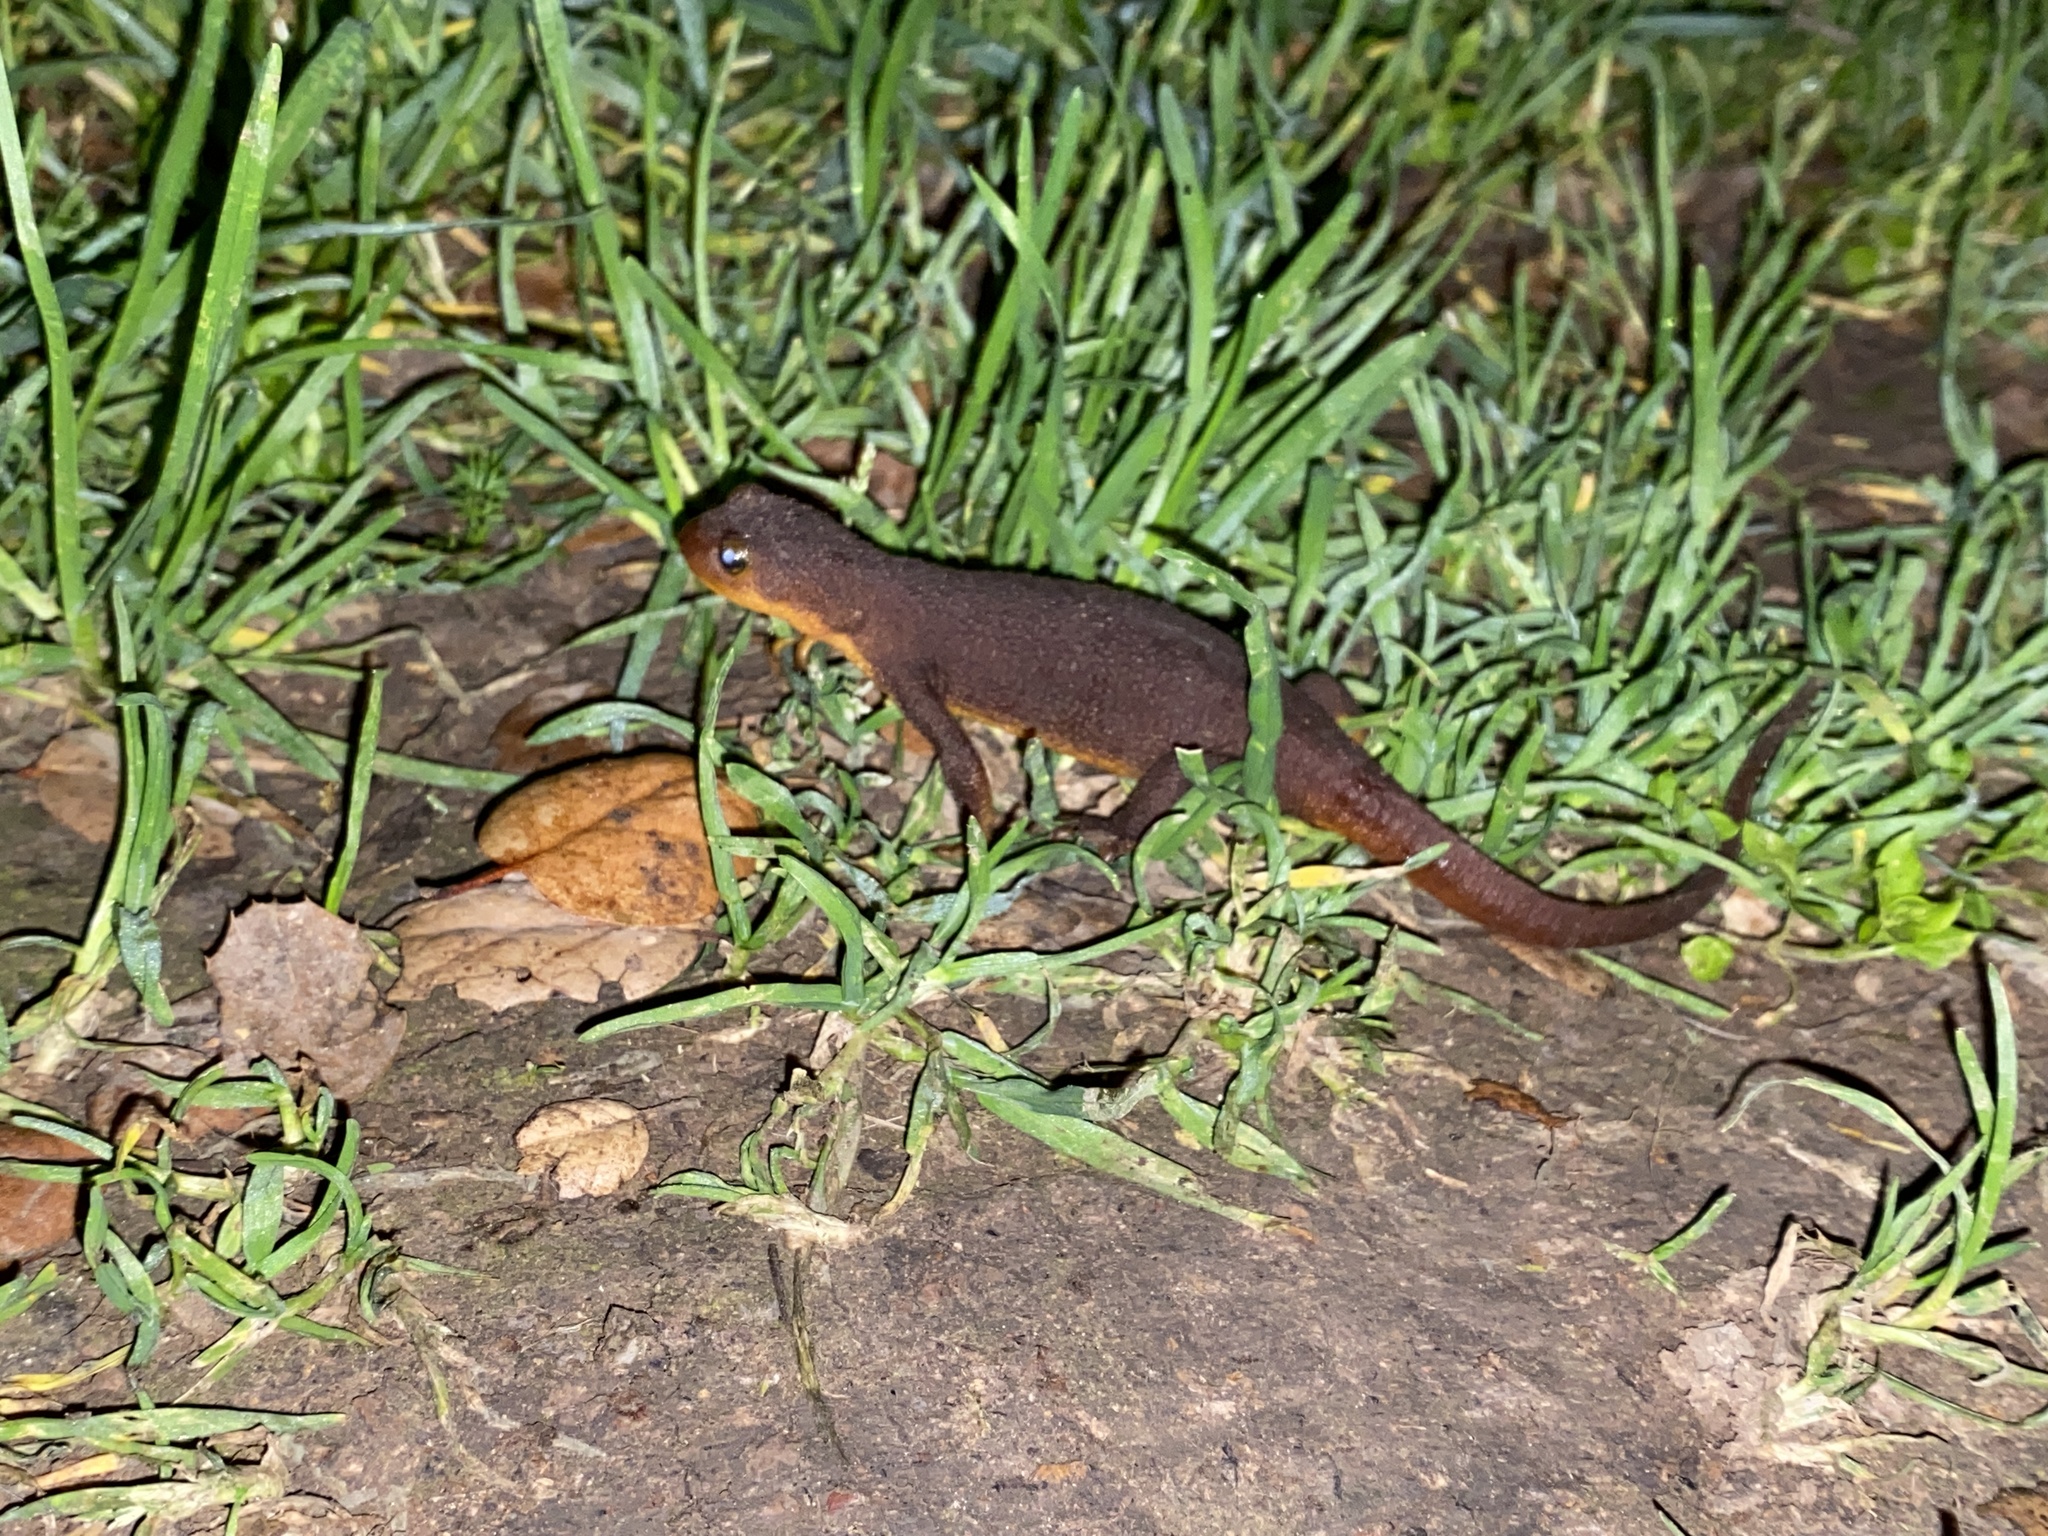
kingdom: Animalia
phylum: Chordata
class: Amphibia
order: Caudata
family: Salamandridae
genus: Taricha
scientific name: Taricha granulosa
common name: Roughskin newt
